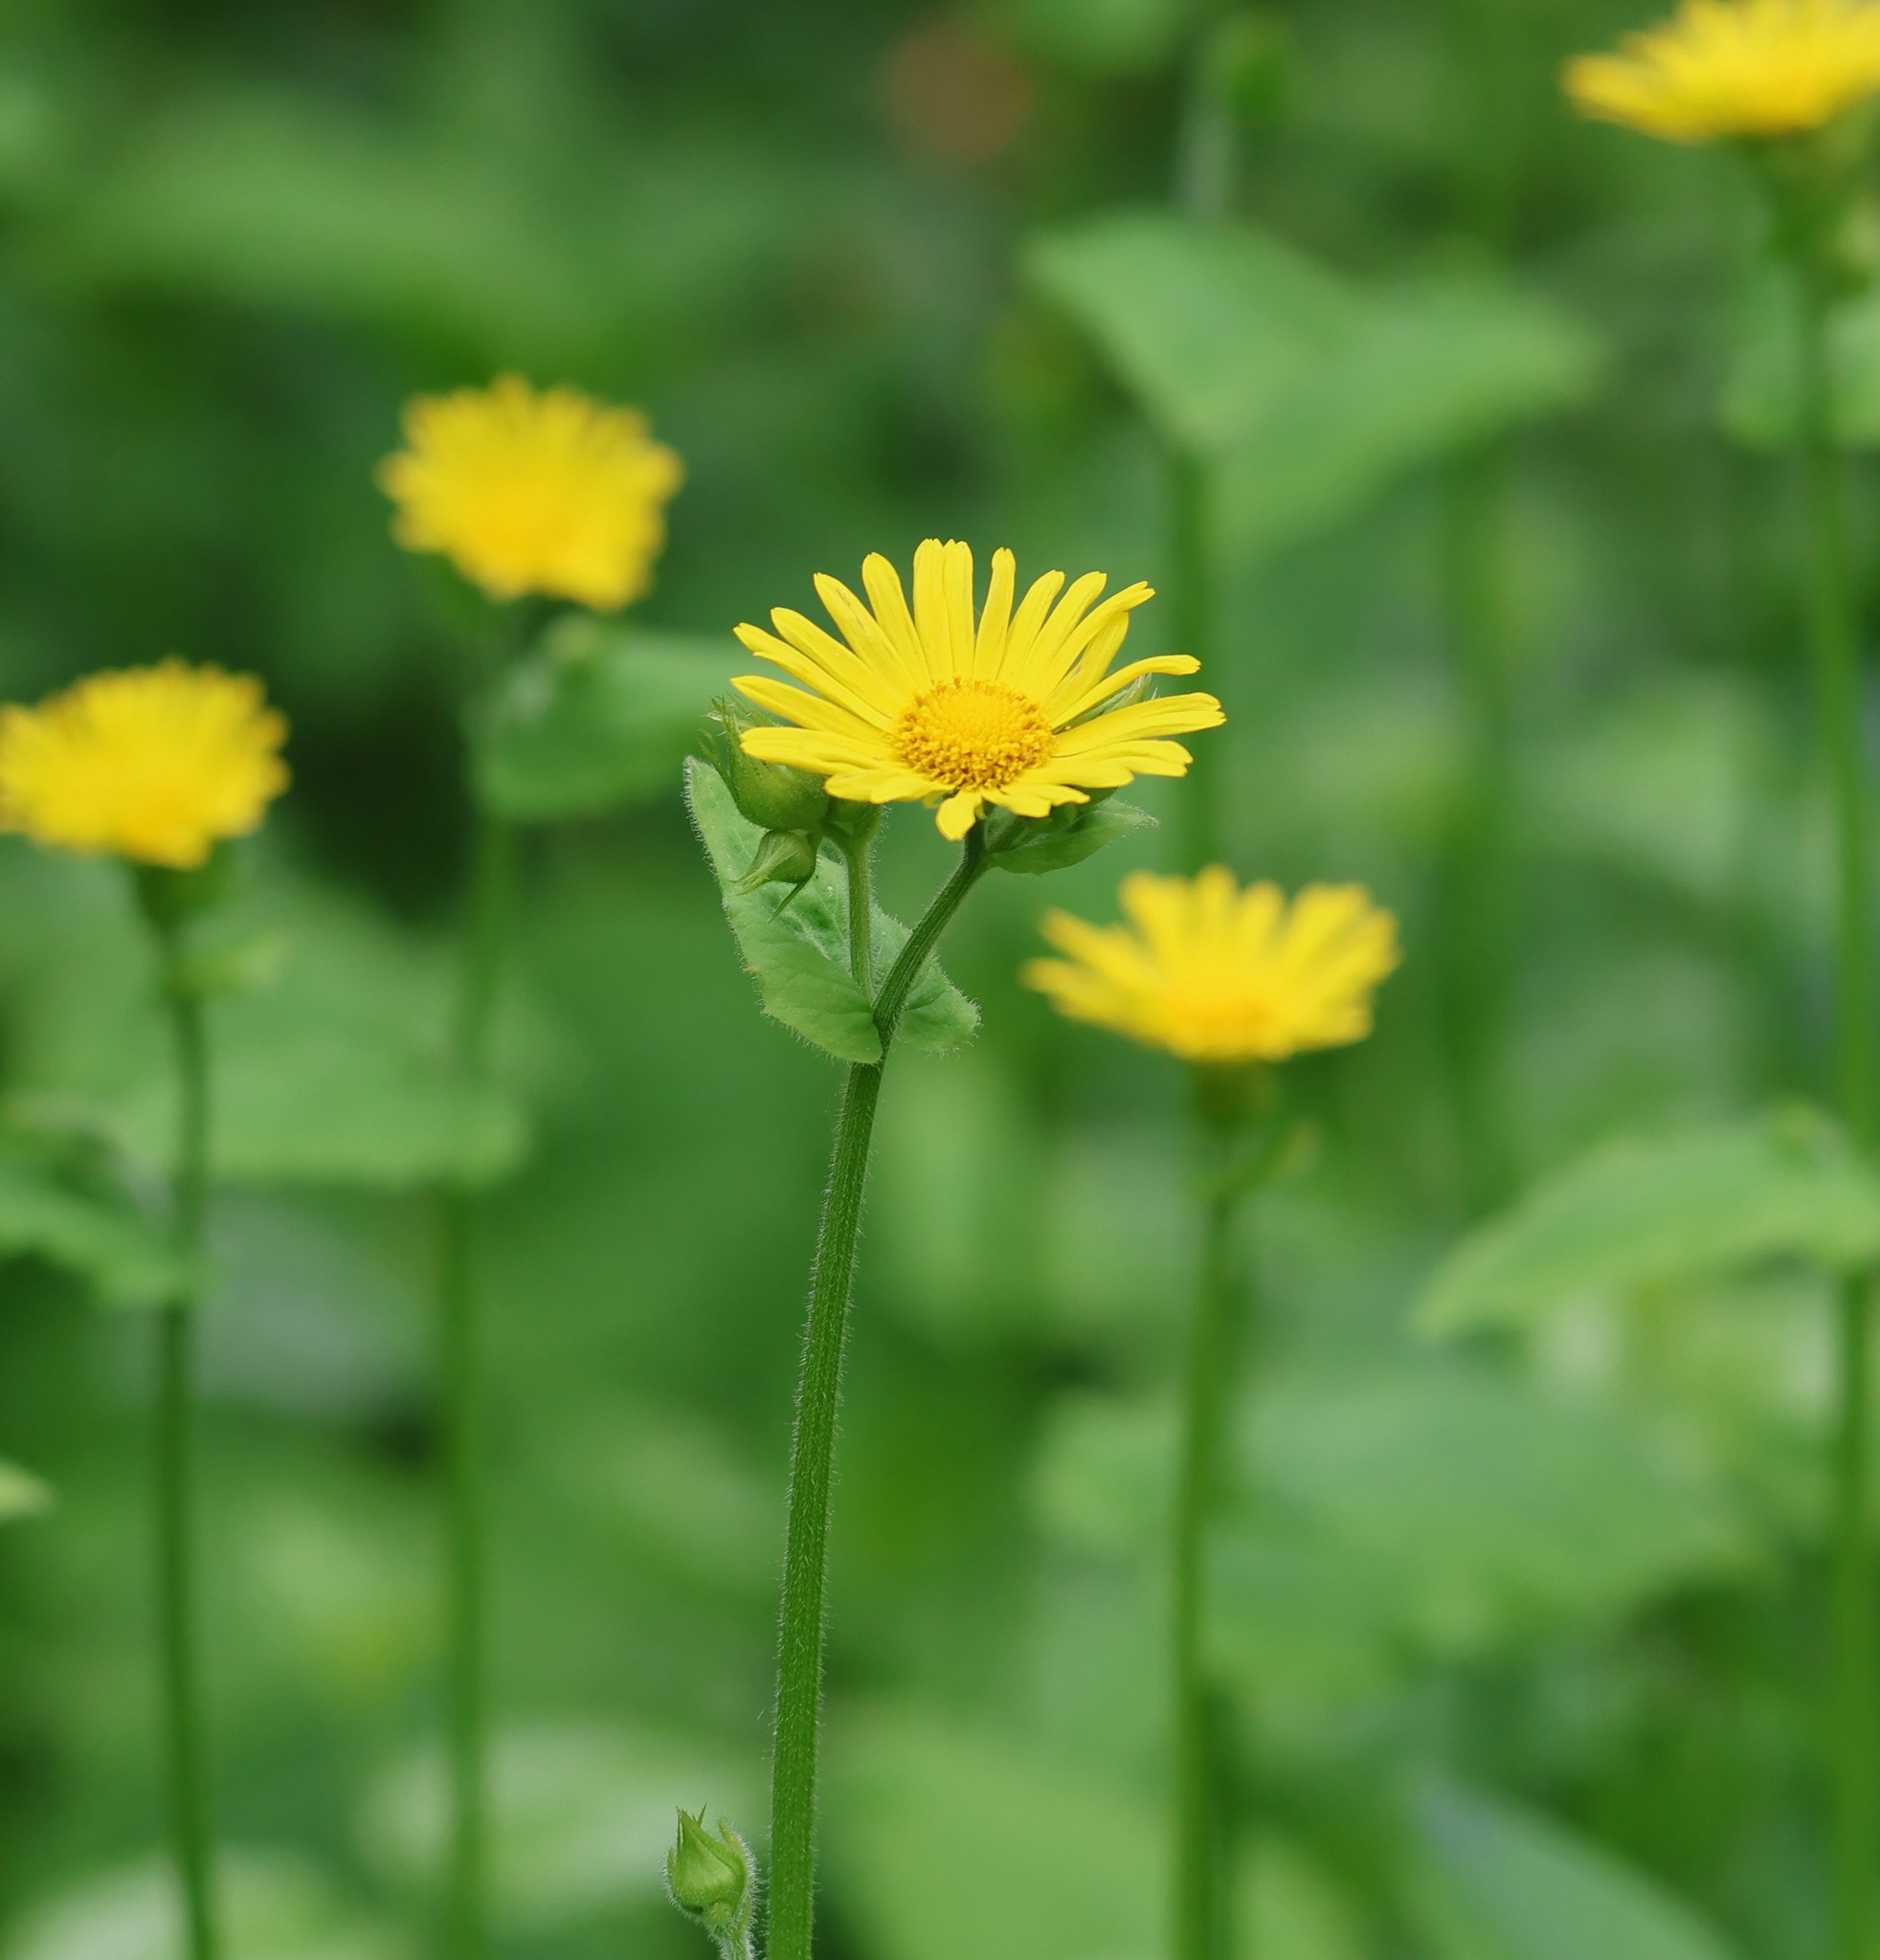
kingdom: Plantae
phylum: Tracheophyta
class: Magnoliopsida
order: Asterales
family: Asteraceae
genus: Doronicum
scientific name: Doronicum pardalianches
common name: Leopard's-bane
